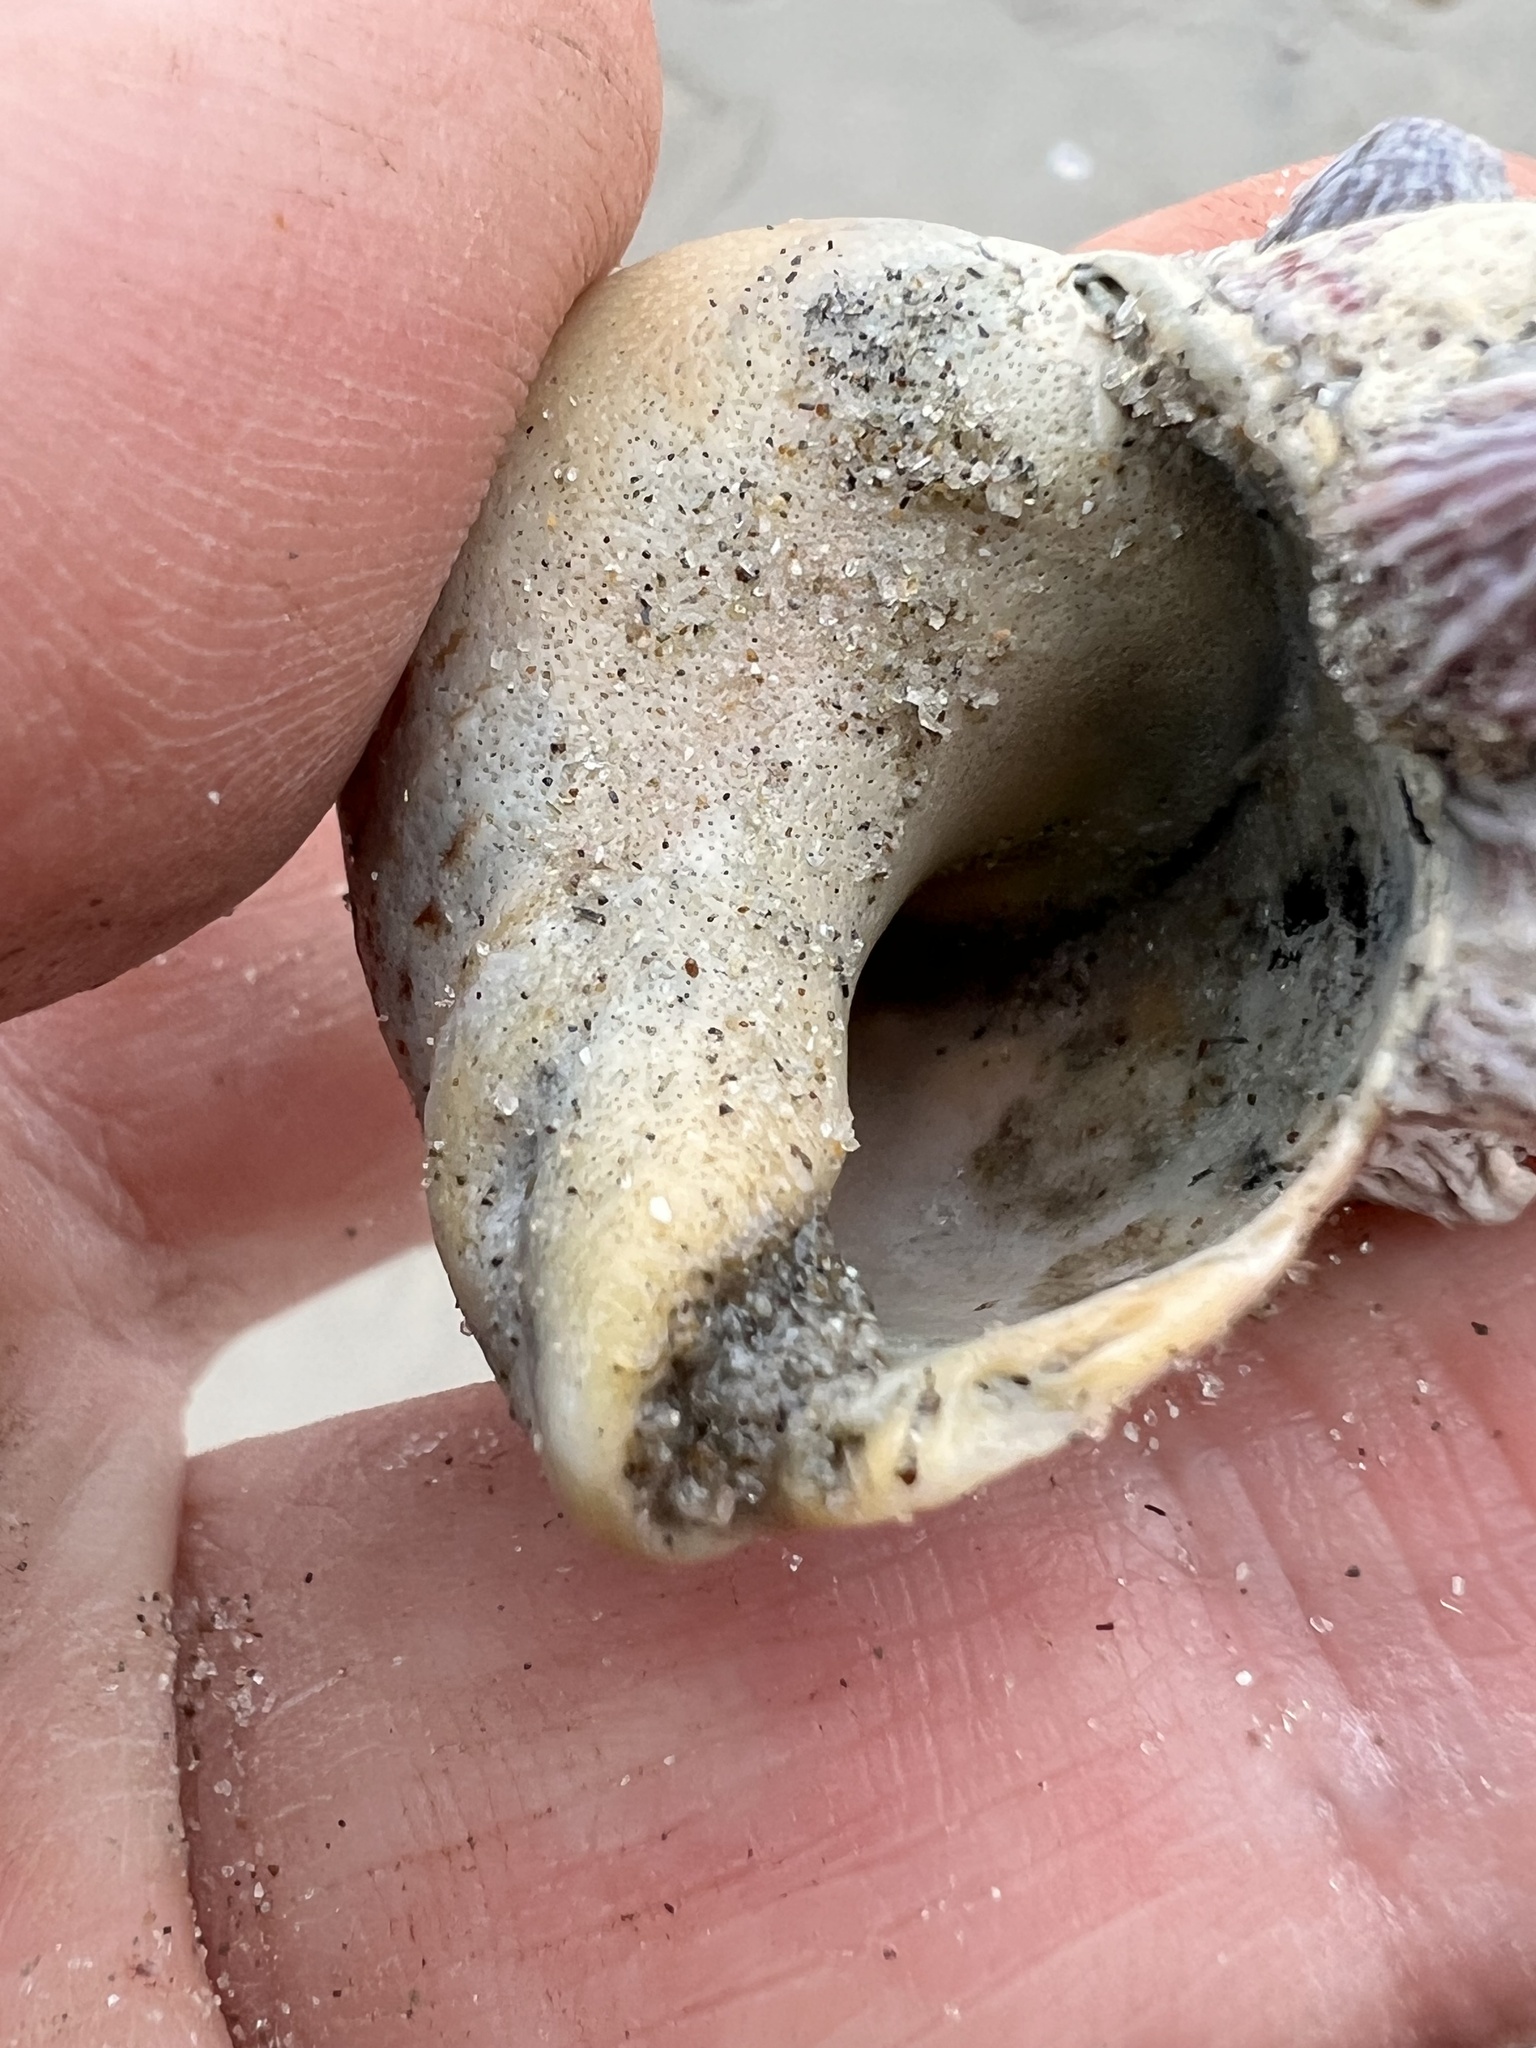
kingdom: Animalia
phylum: Mollusca
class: Gastropoda
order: Neogastropoda
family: Cominellidae
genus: Cominella
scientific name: Cominella adspersa
